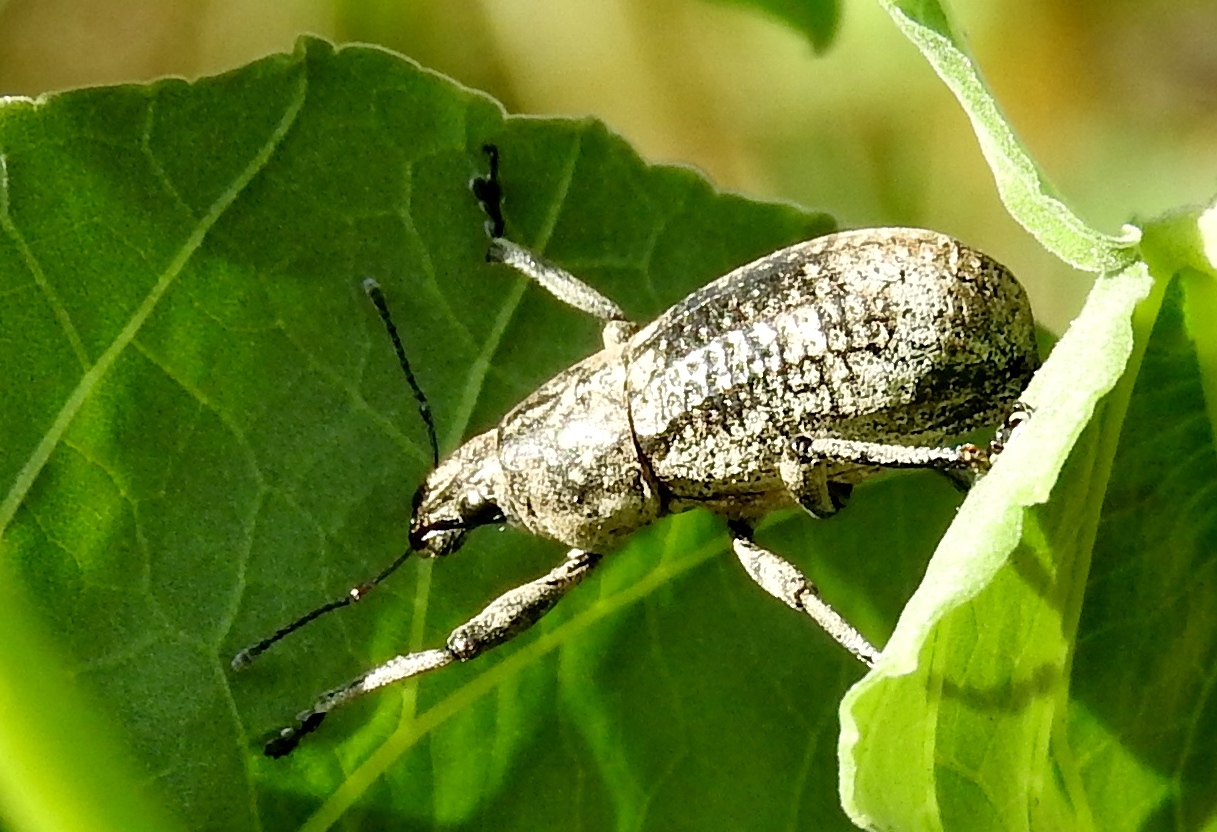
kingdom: Animalia
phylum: Arthropoda
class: Insecta
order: Coleoptera
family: Curculionidae
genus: Epicaerus
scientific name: Epicaerus
